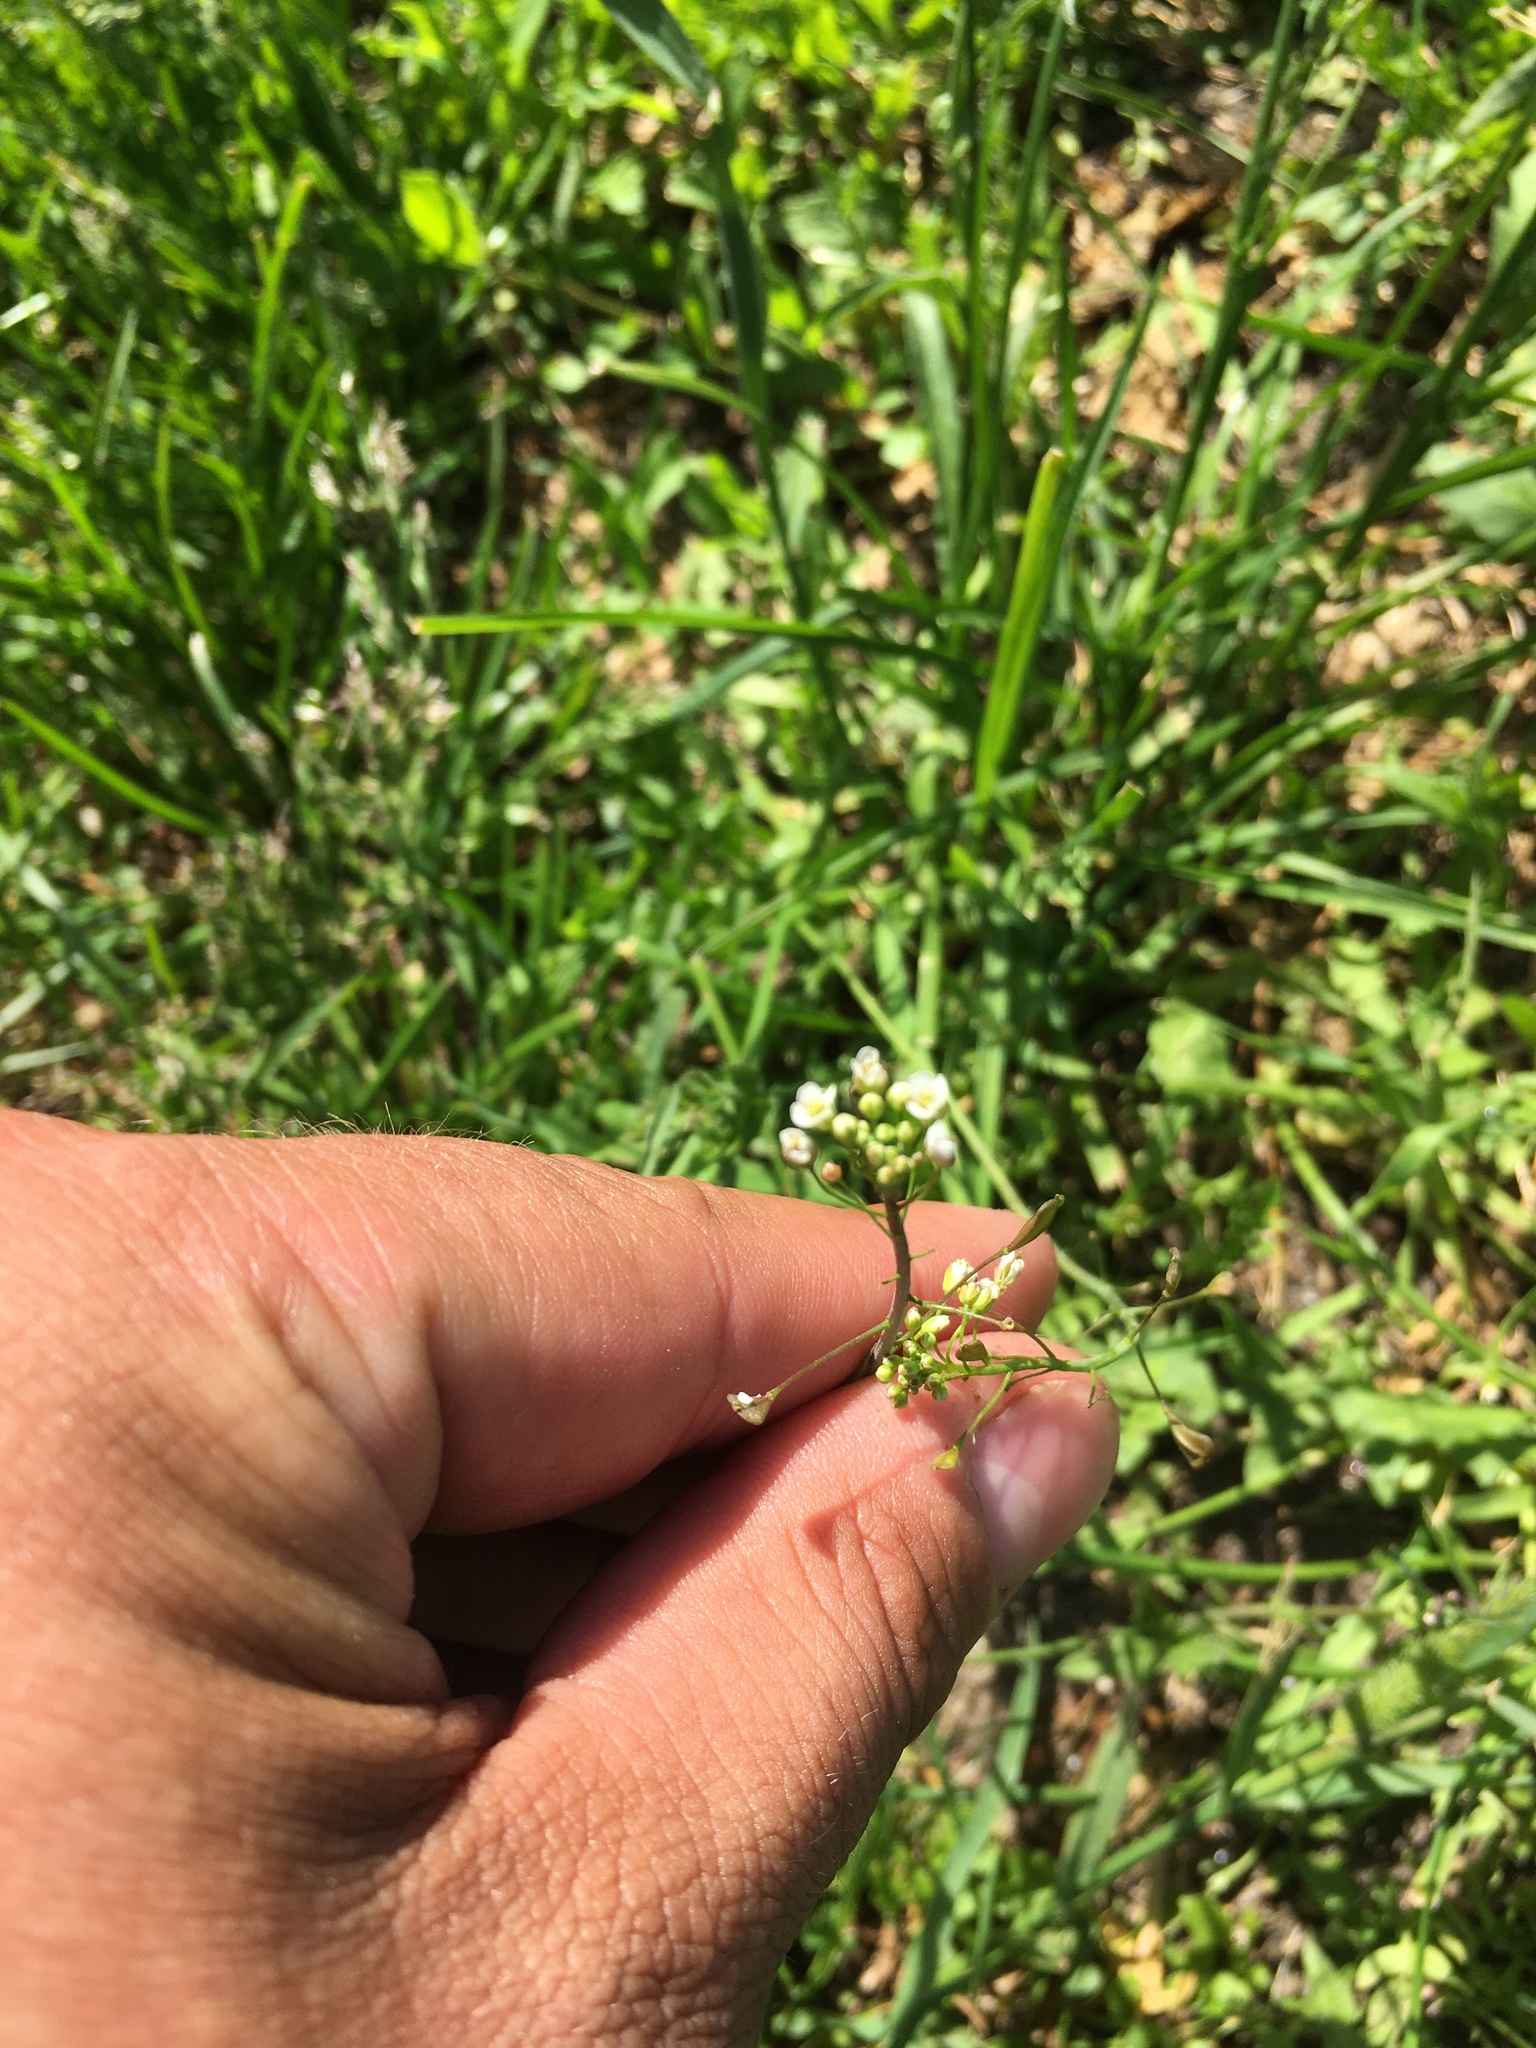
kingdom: Plantae
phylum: Tracheophyta
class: Magnoliopsida
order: Brassicales
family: Brassicaceae
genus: Capsella
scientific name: Capsella bursa-pastoris
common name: Shepherd's purse
